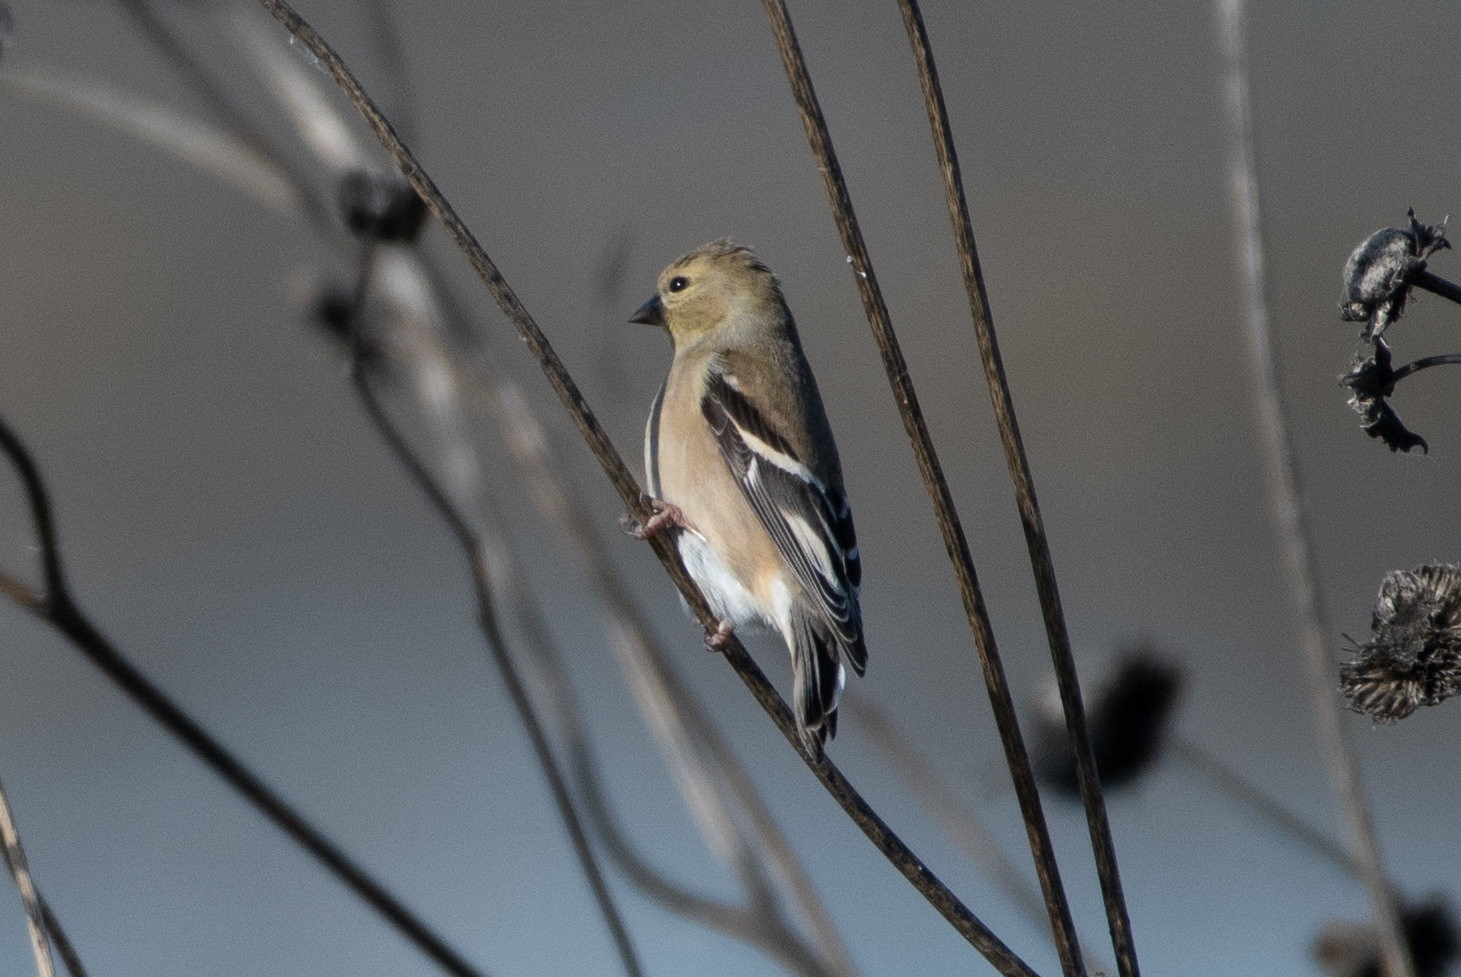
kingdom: Animalia
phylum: Chordata
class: Aves
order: Passeriformes
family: Fringillidae
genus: Spinus
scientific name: Spinus tristis
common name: American goldfinch
